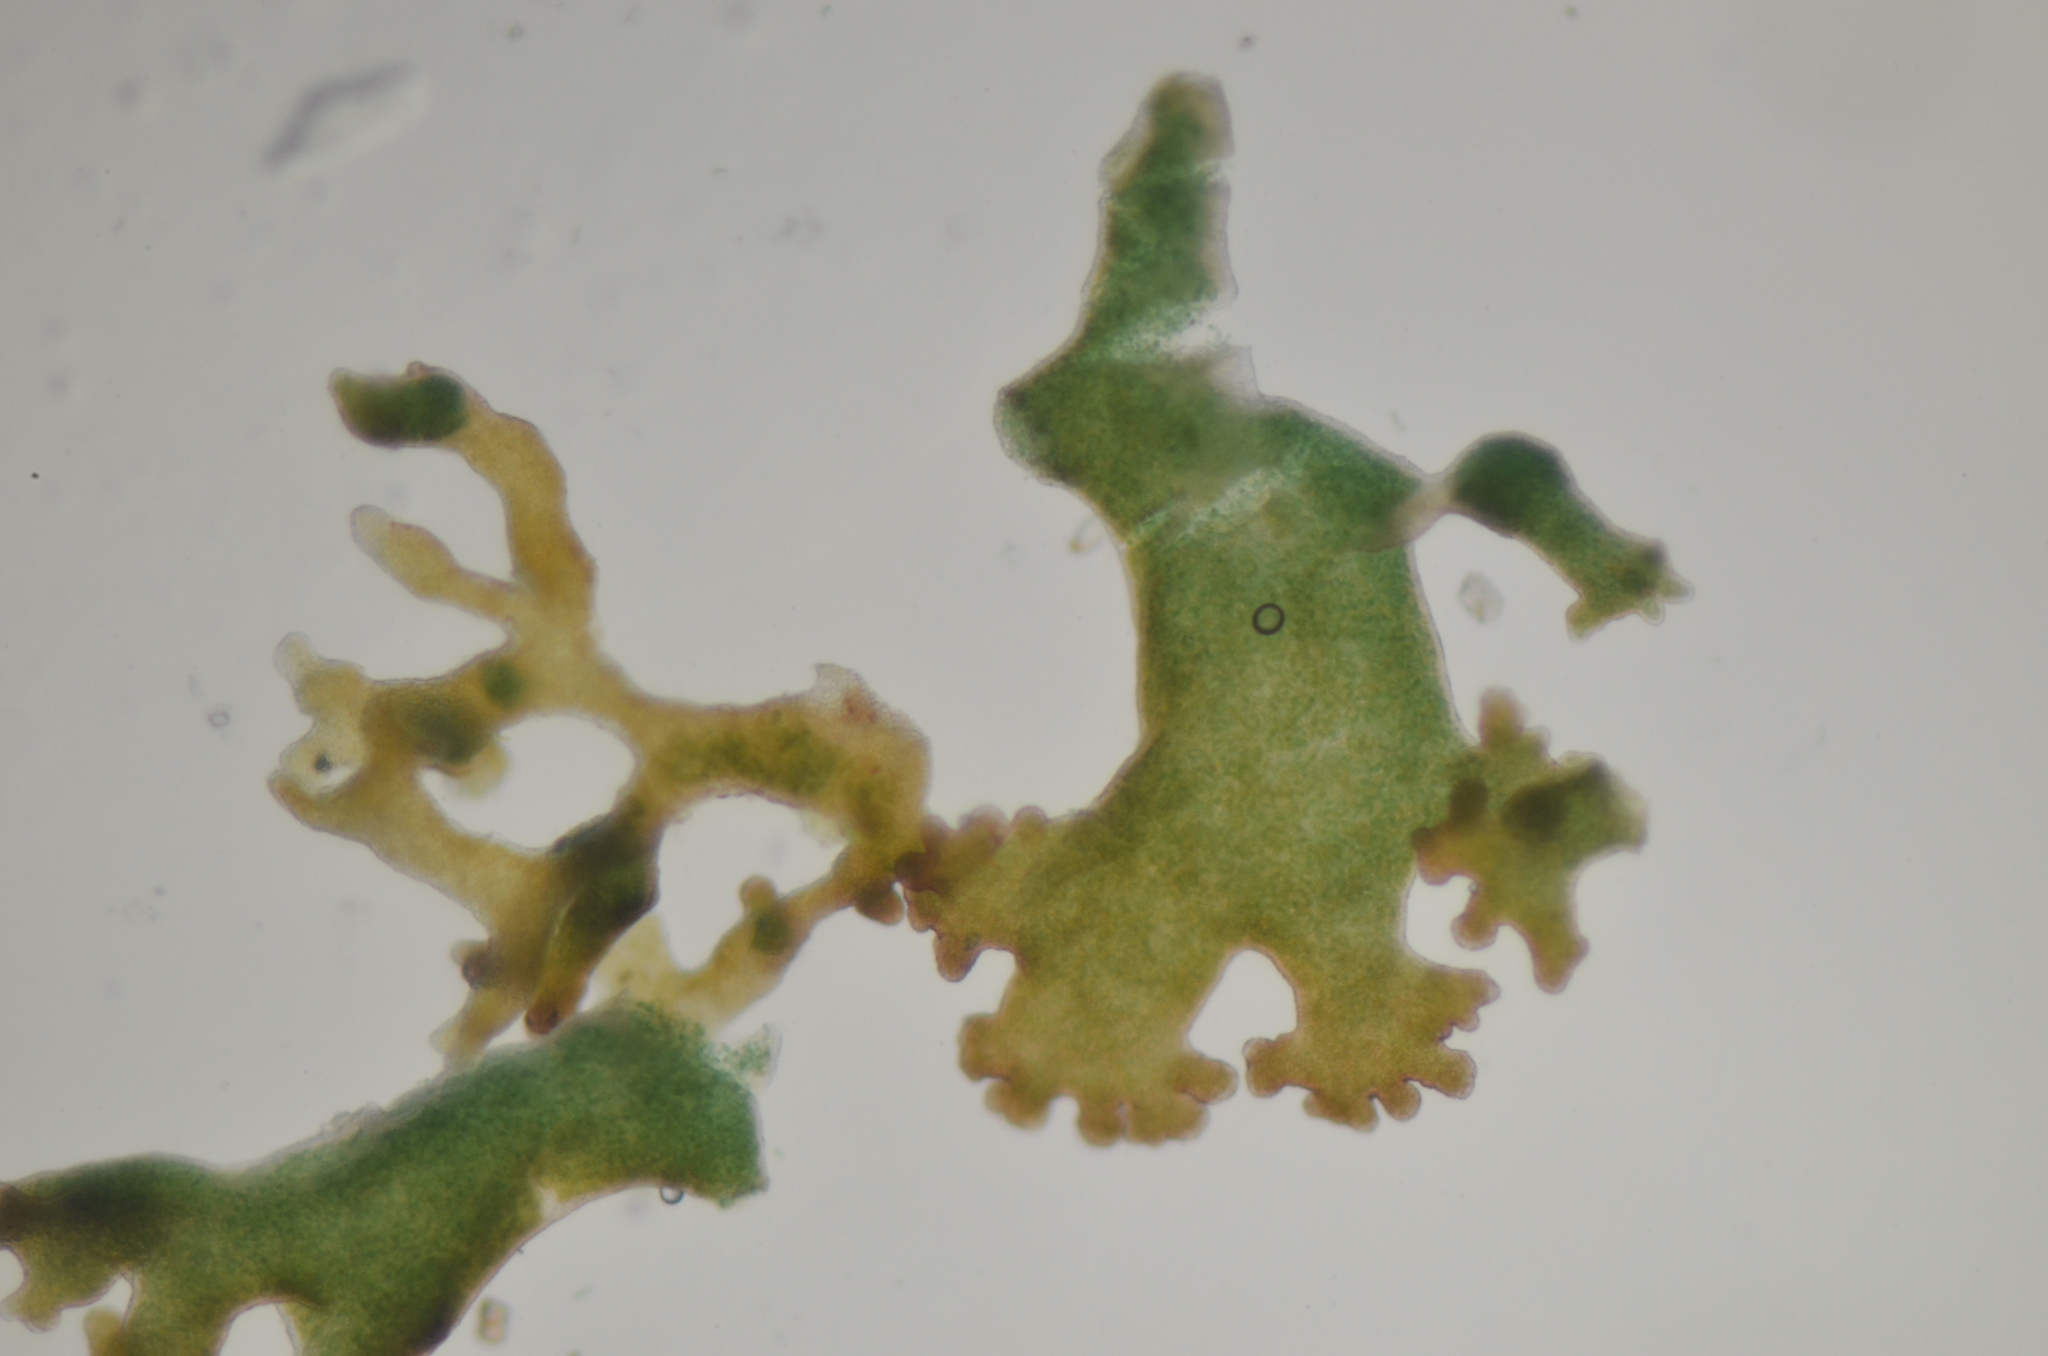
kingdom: Fungi
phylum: Ascomycota
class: Lecanoromycetes
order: Peltigerales
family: Collemataceae
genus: Scytinium
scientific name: Scytinium lichenoides
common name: Tattered jellyskin lichen
